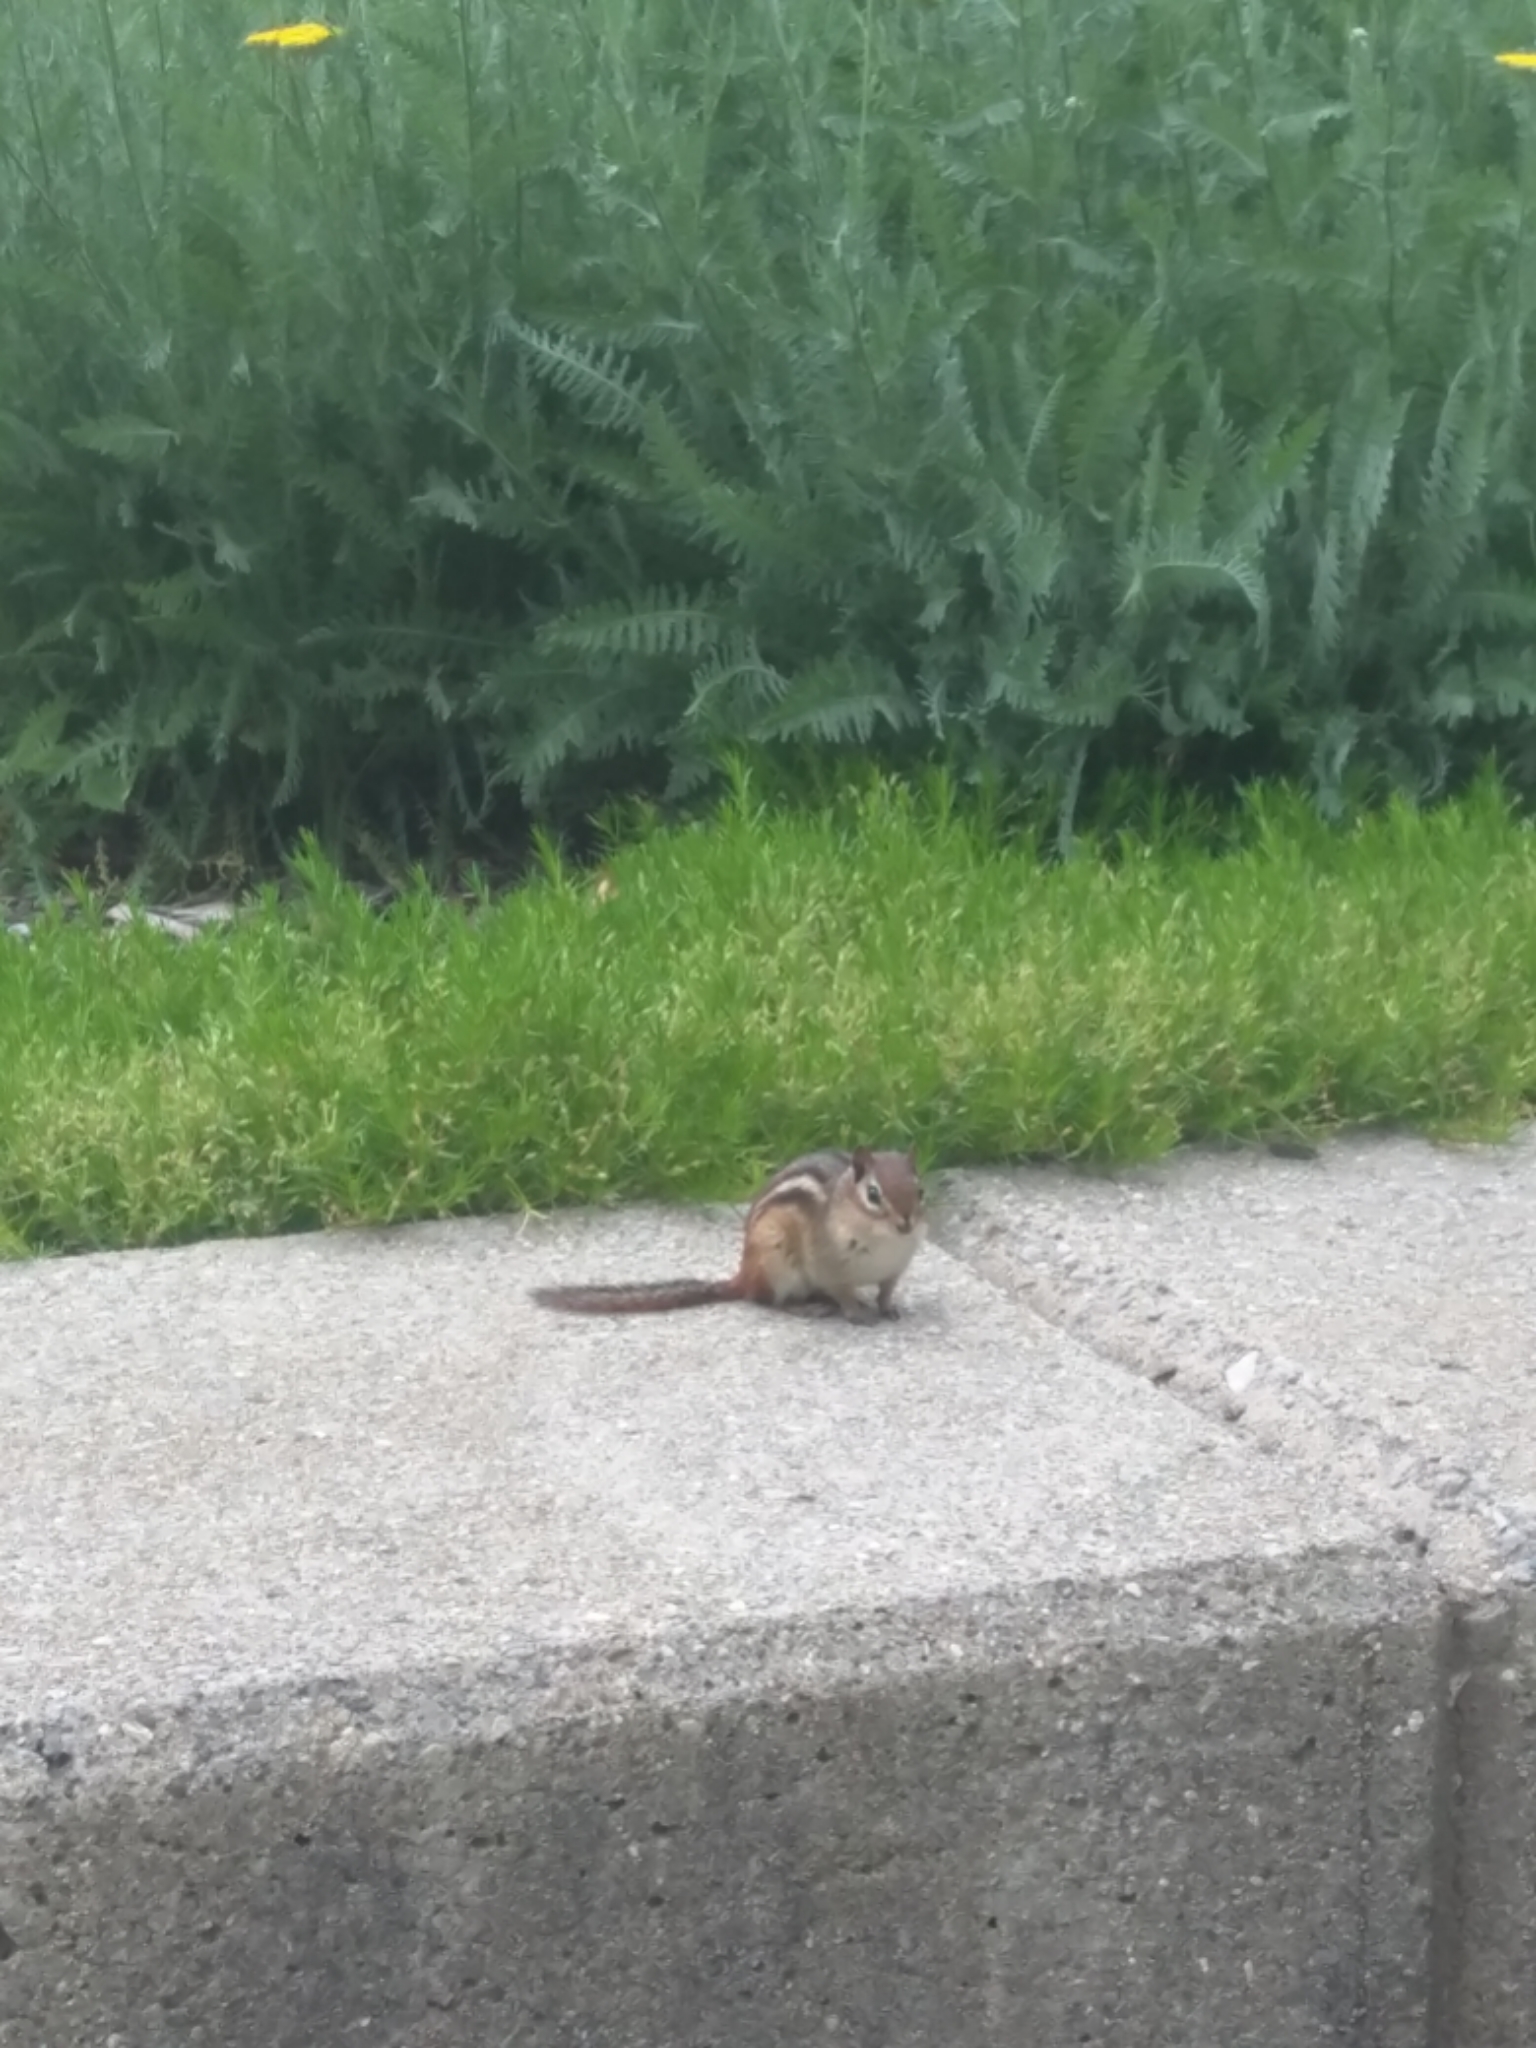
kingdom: Animalia
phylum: Chordata
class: Mammalia
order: Rodentia
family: Sciuridae
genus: Tamias
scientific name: Tamias striatus
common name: Eastern chipmunk
